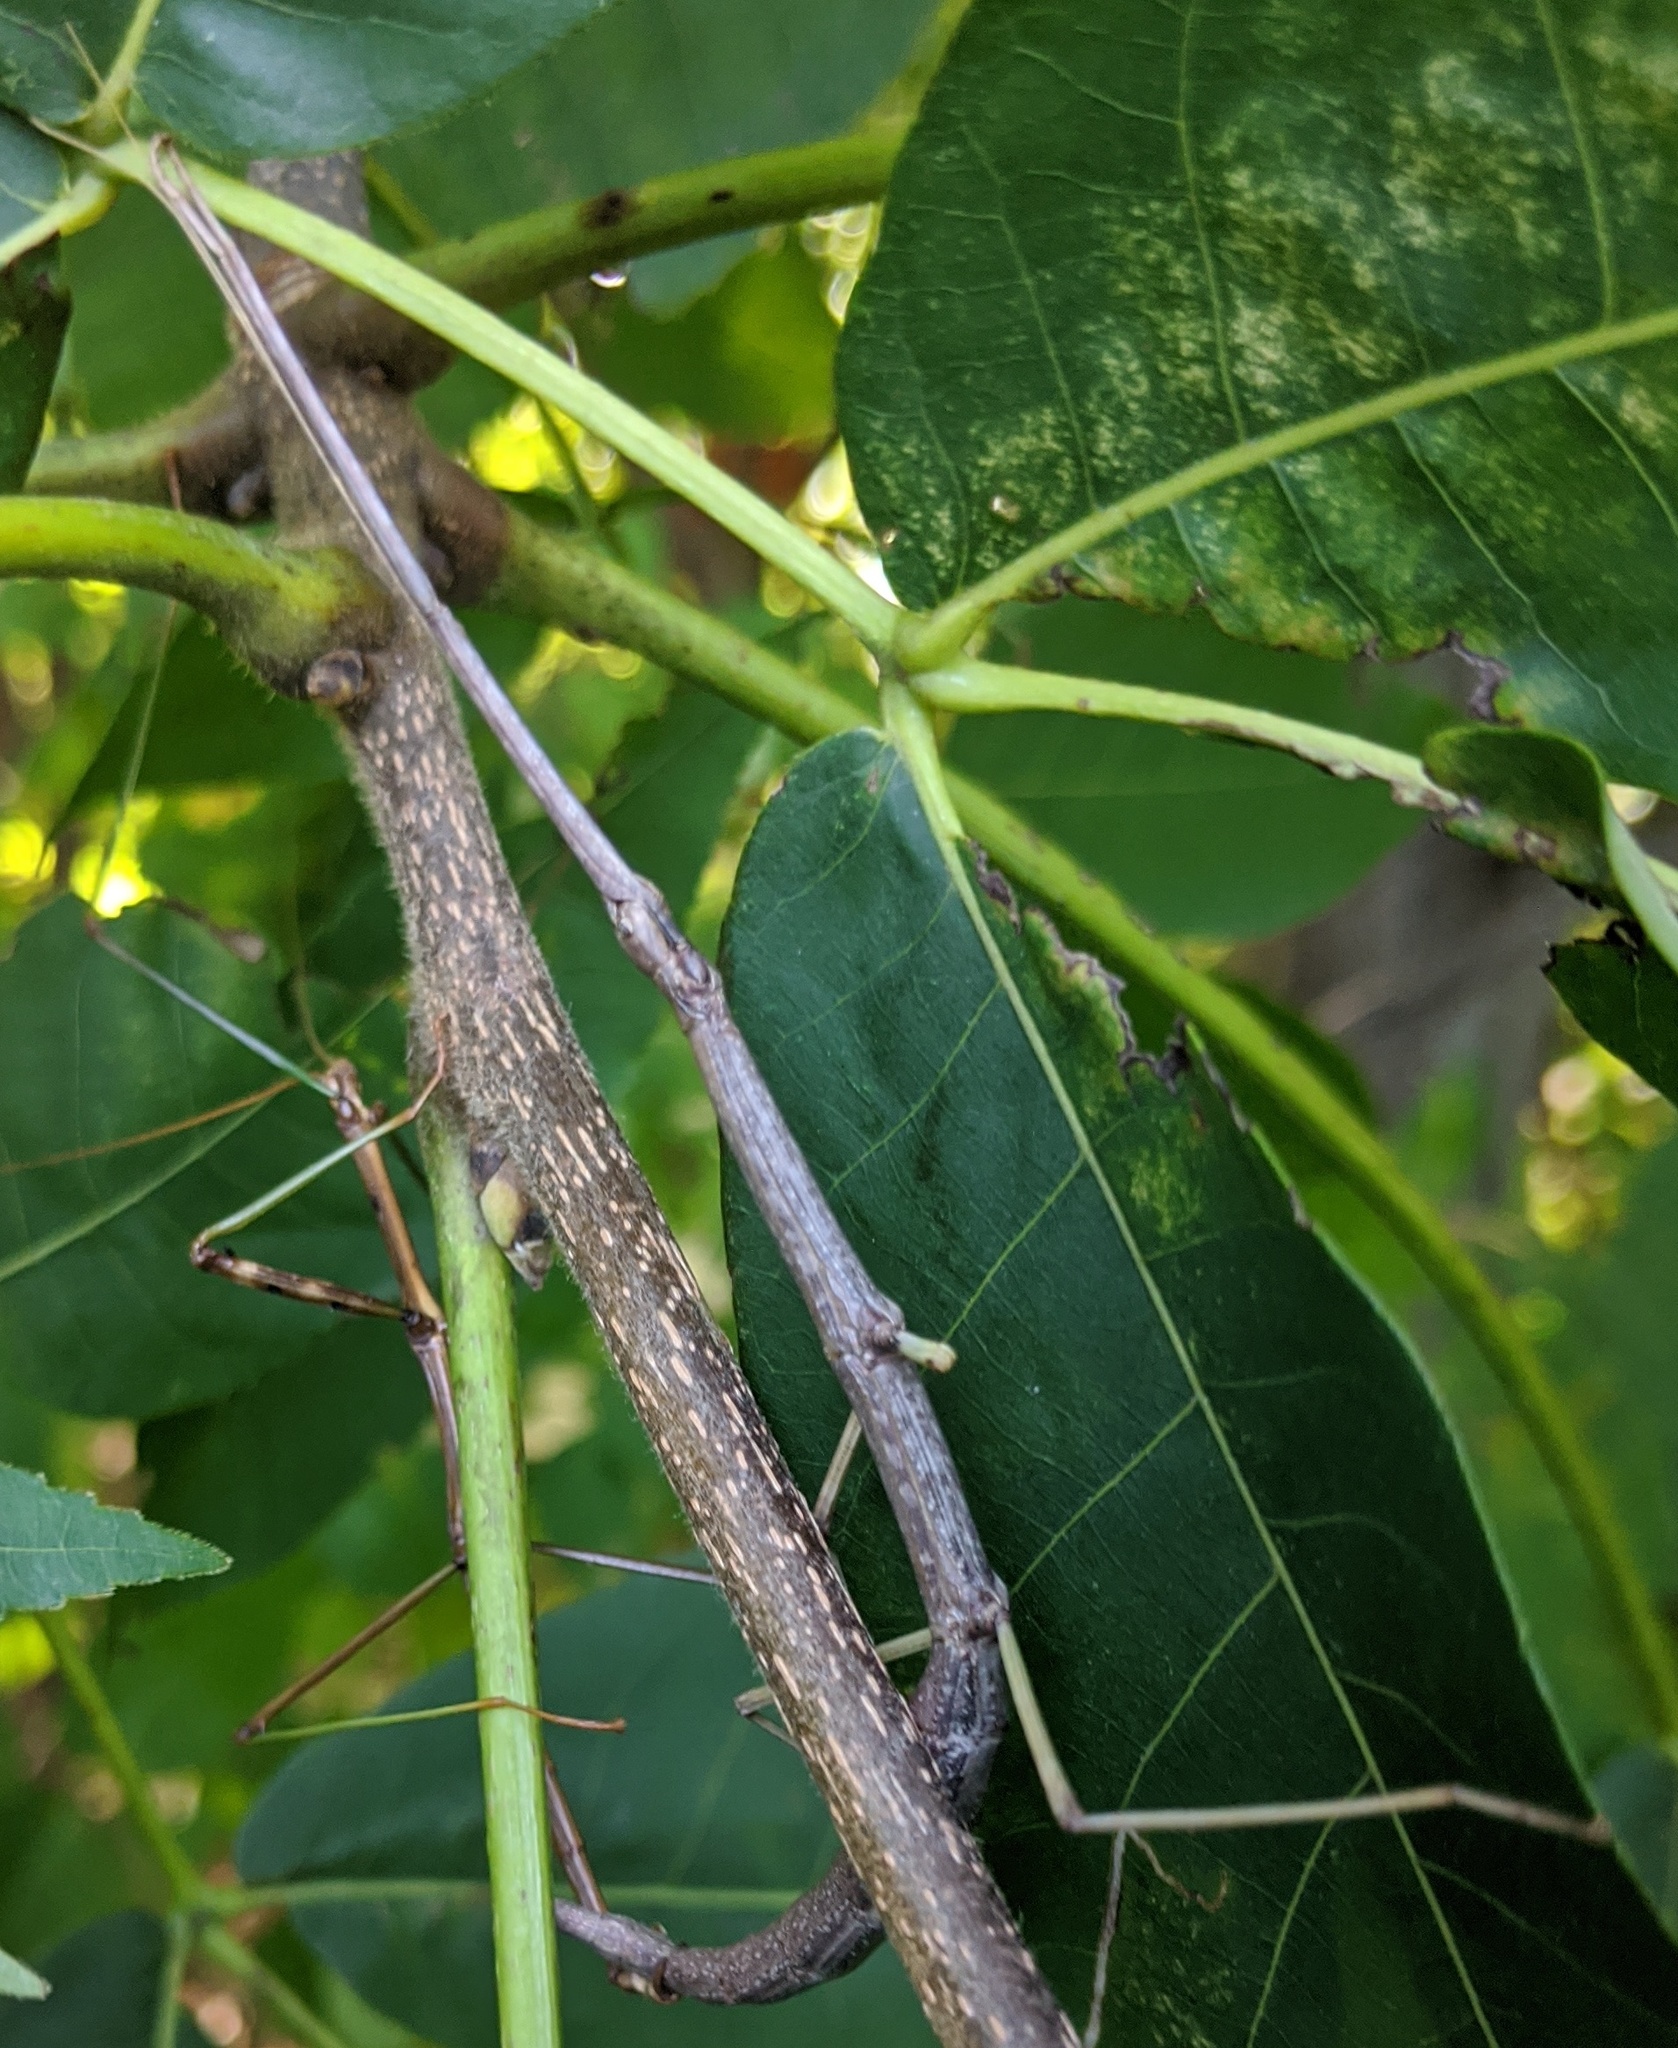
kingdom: Animalia
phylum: Arthropoda
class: Insecta
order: Phasmida
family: Diapheromeridae
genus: Diapheromera
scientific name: Diapheromera femorata
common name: Common american walkingstick
